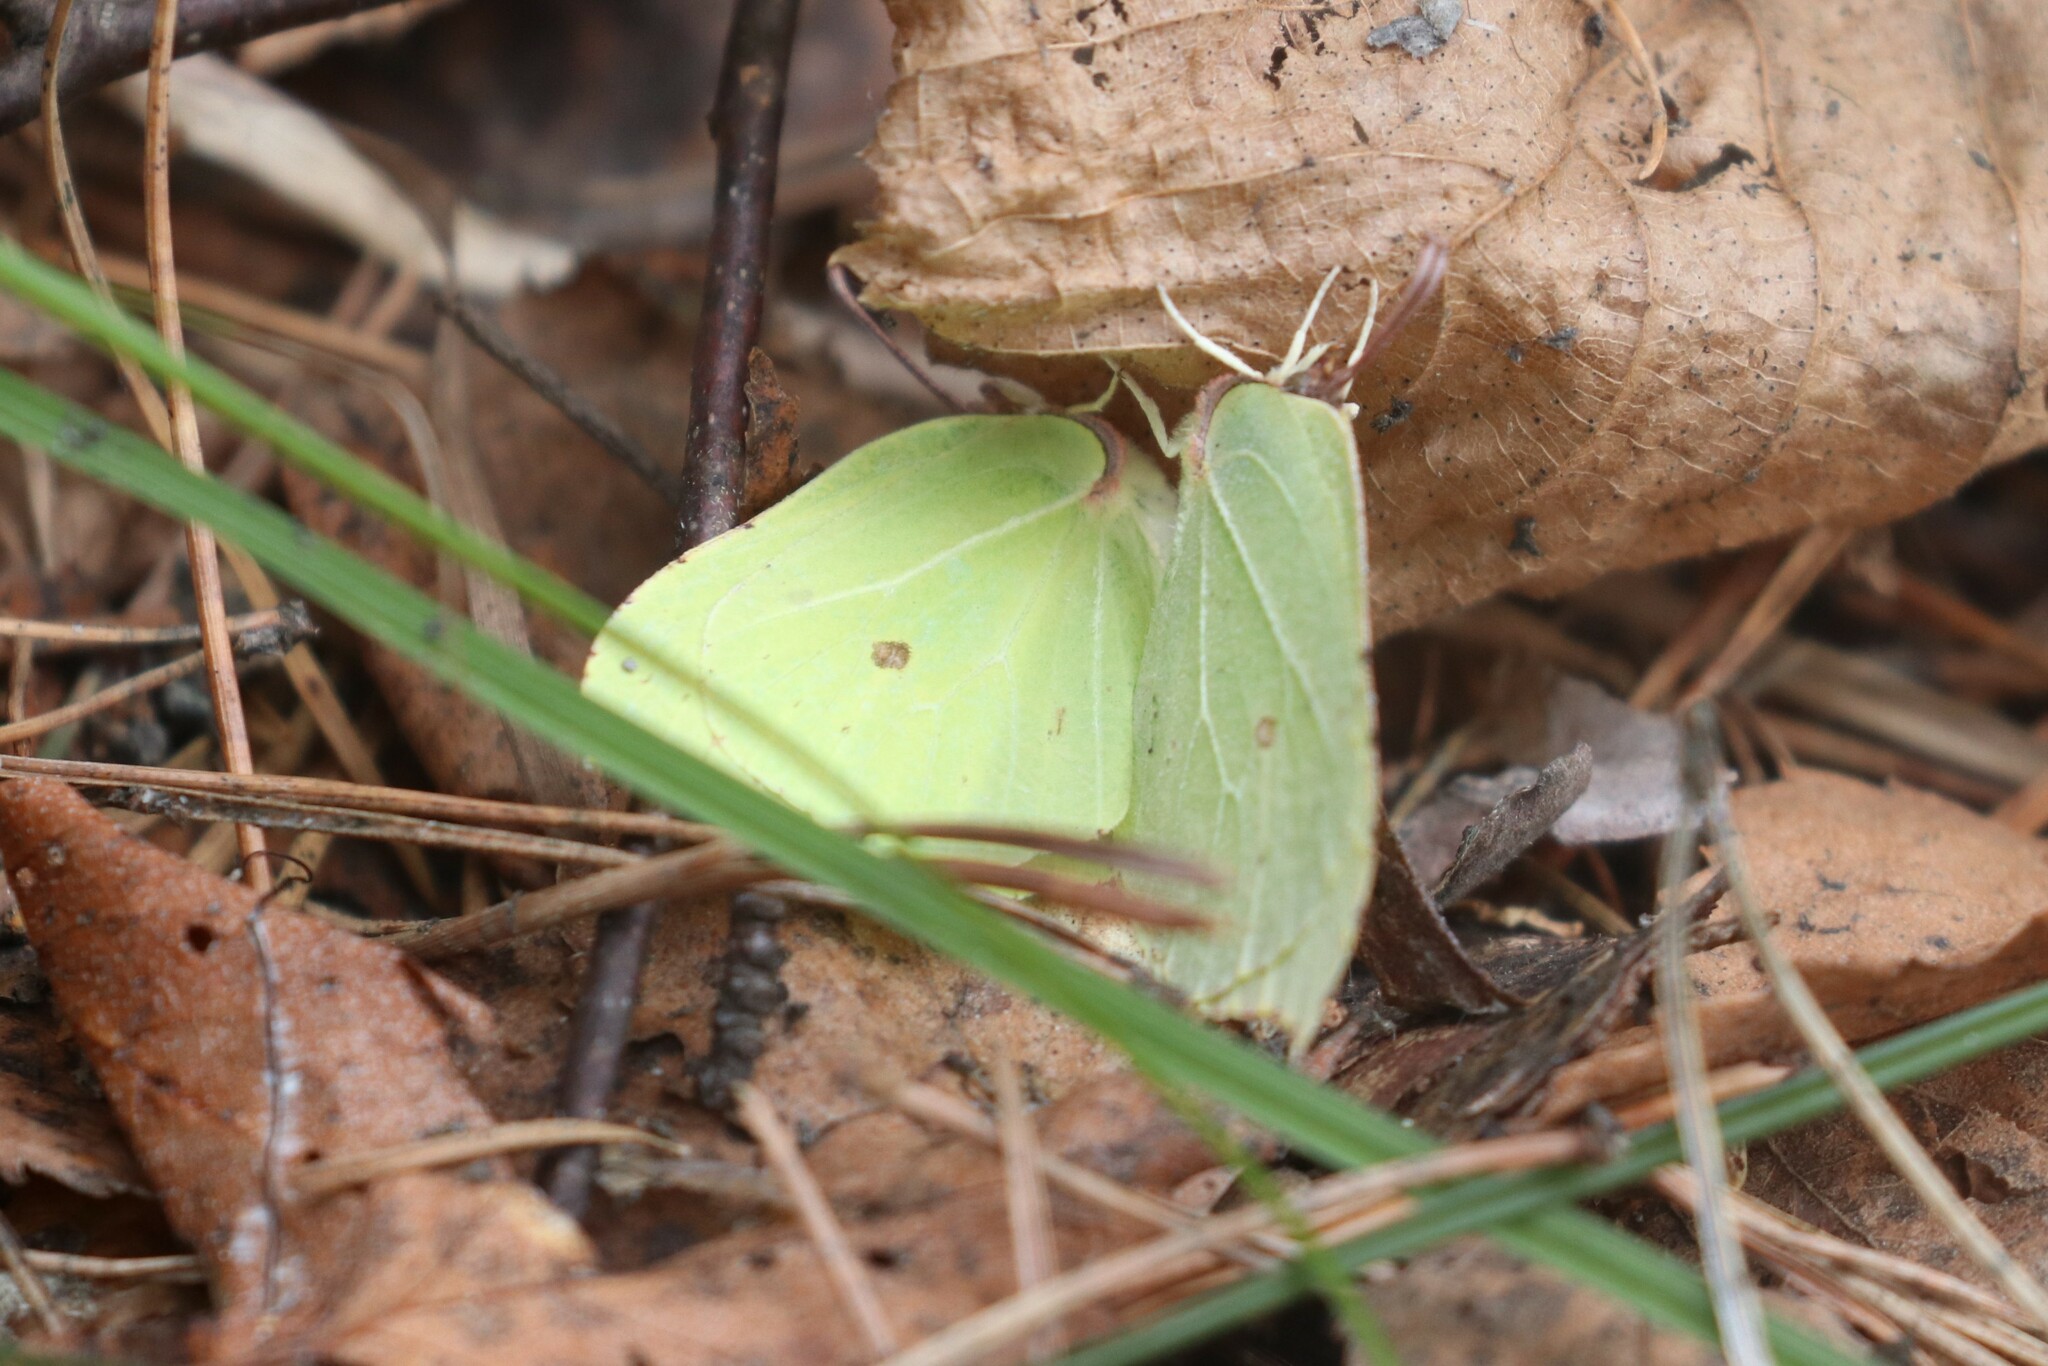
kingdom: Animalia
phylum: Arthropoda
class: Insecta
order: Lepidoptera
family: Pieridae
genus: Gonepteryx
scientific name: Gonepteryx rhamni
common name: Brimstone
